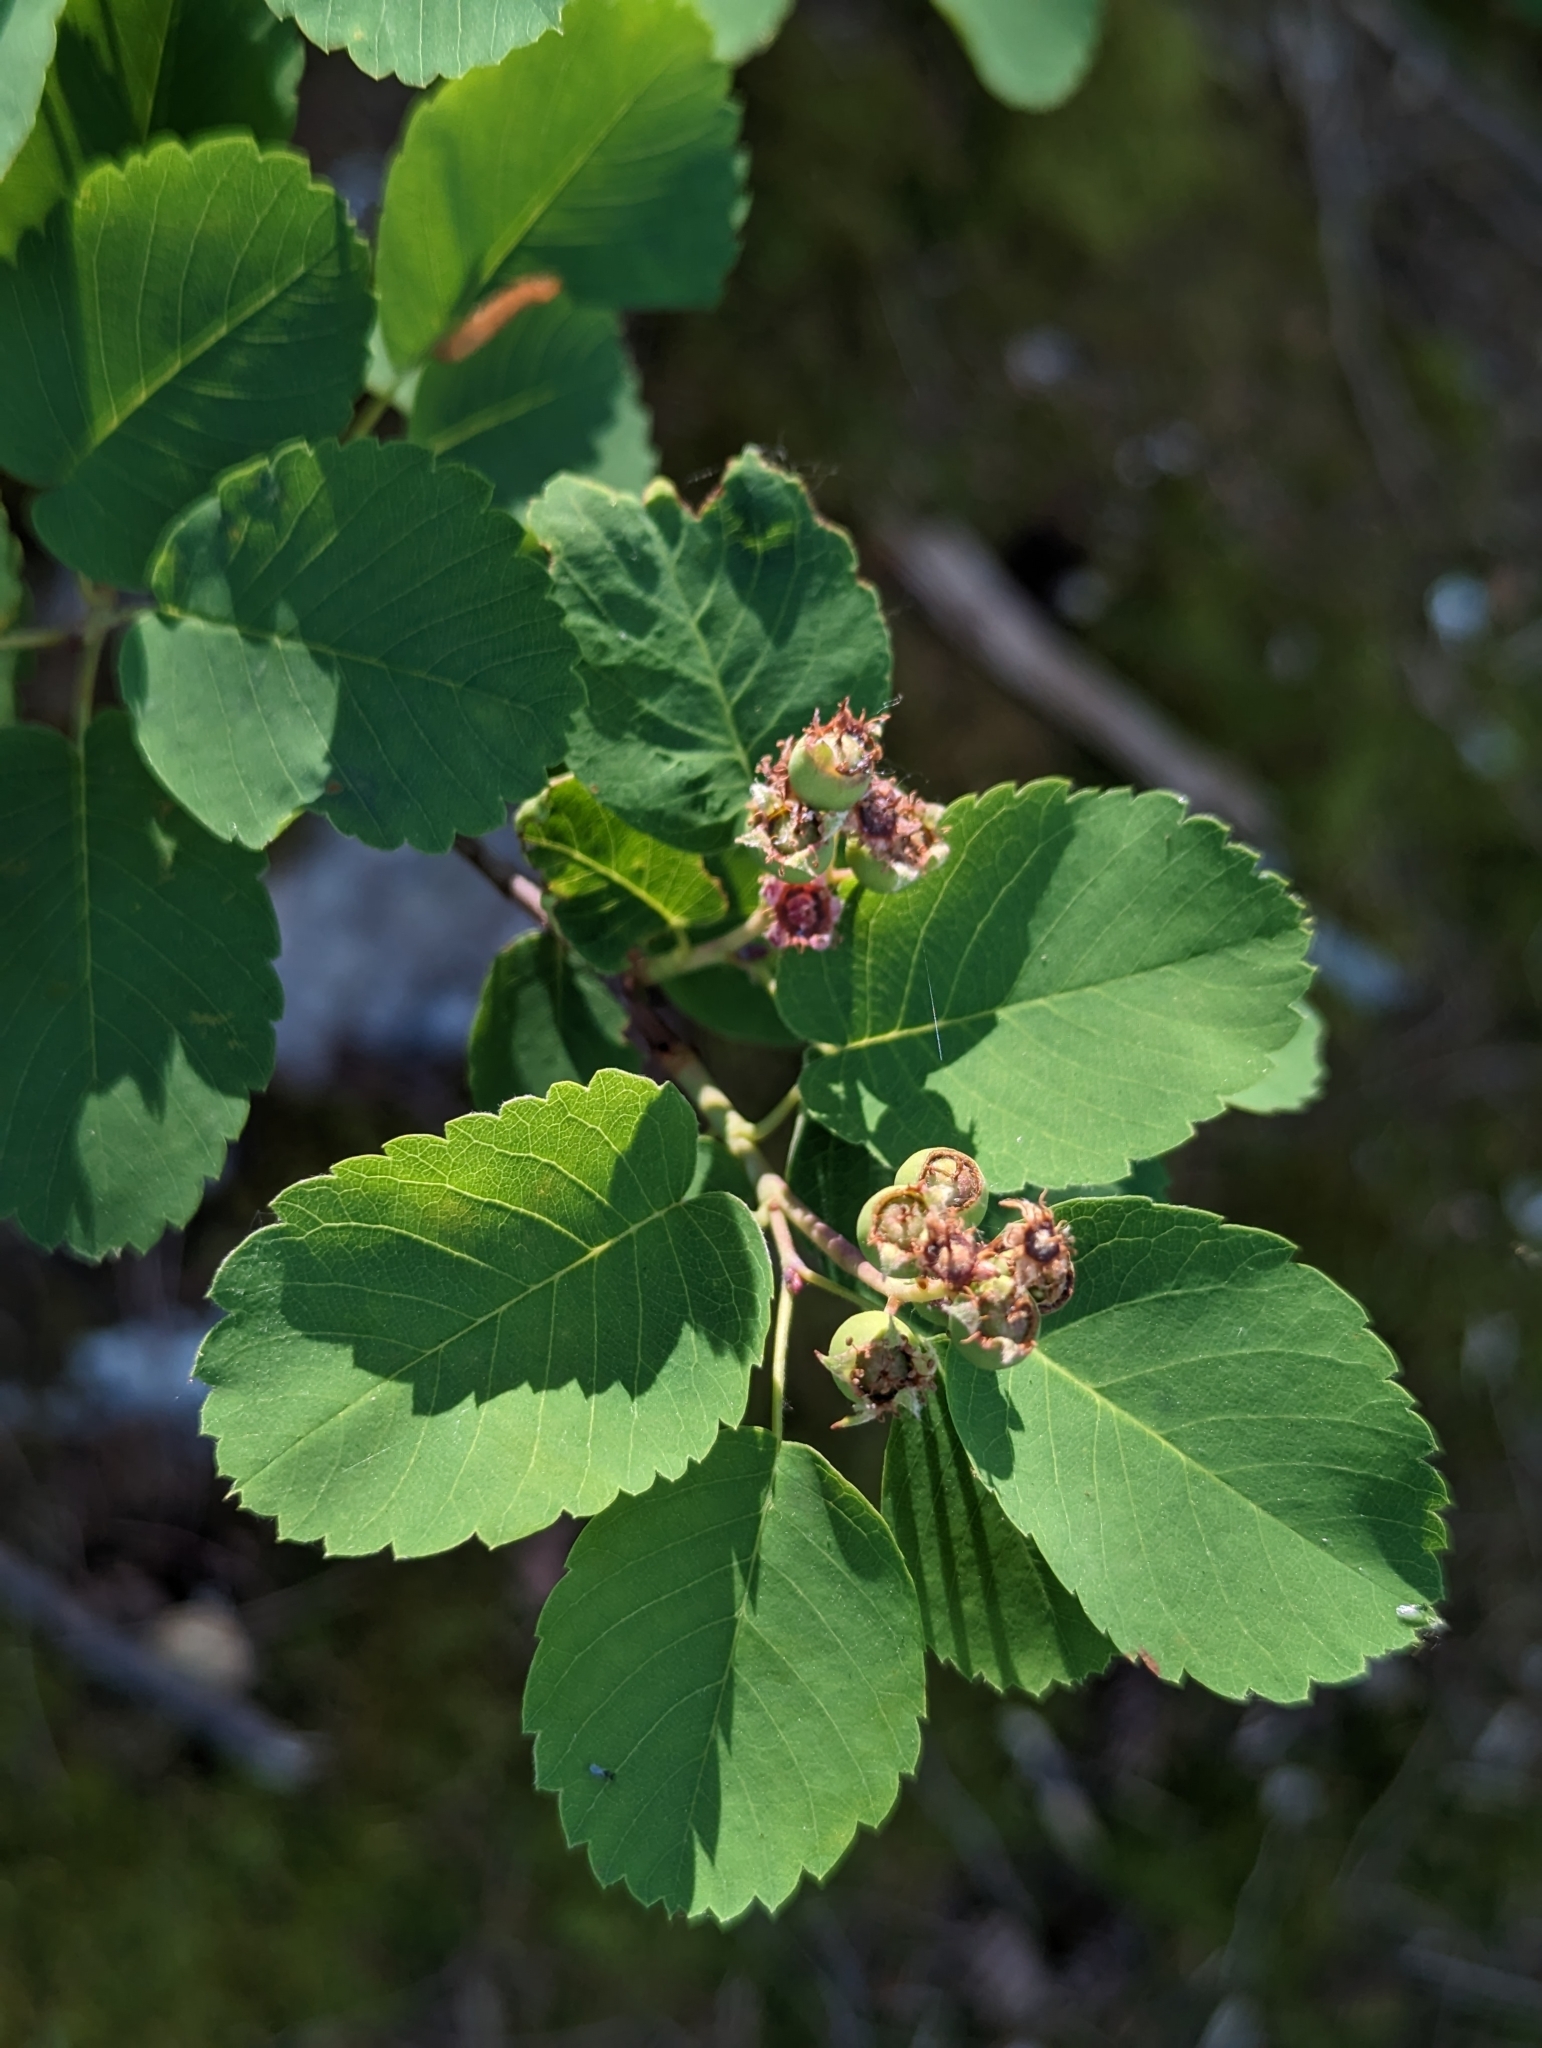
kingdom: Plantae
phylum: Tracheophyta
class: Magnoliopsida
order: Rosales
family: Rosaceae
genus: Amelanchier
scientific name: Amelanchier alnifolia
